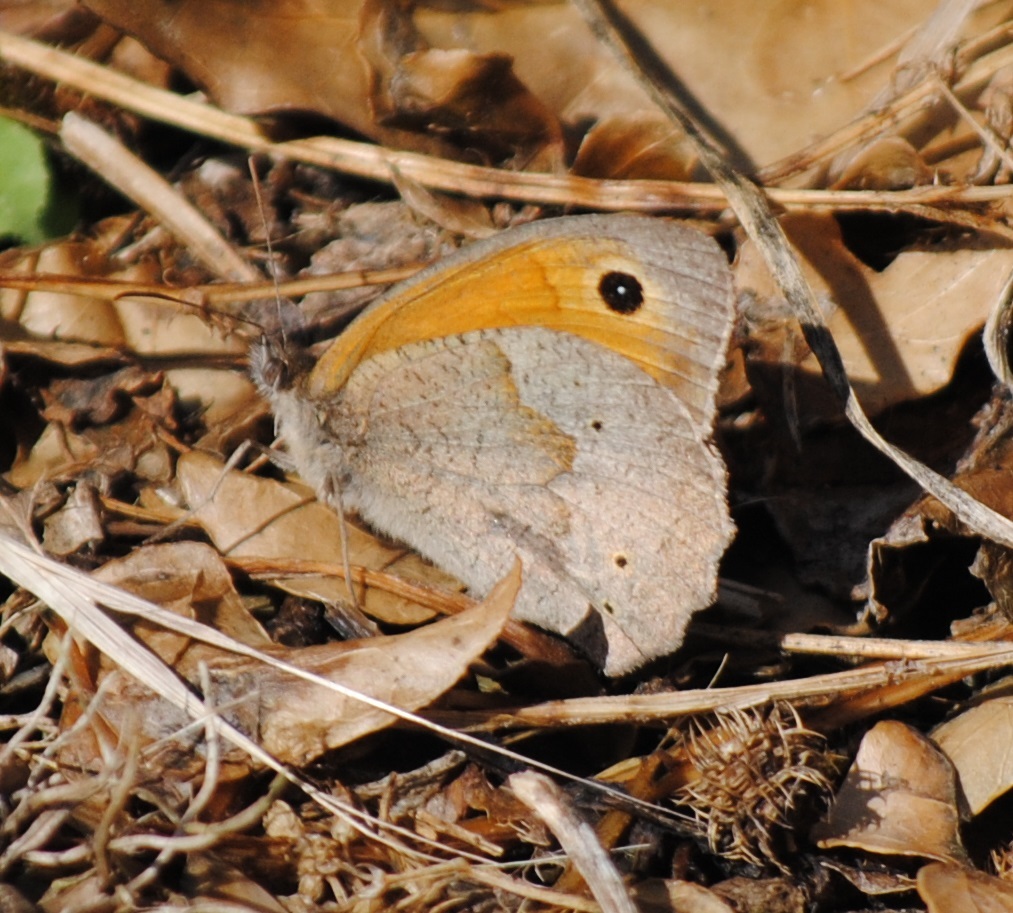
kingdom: Animalia
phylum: Arthropoda
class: Insecta
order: Lepidoptera
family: Nymphalidae
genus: Maniola
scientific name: Maniola jurtina
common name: Meadow brown
